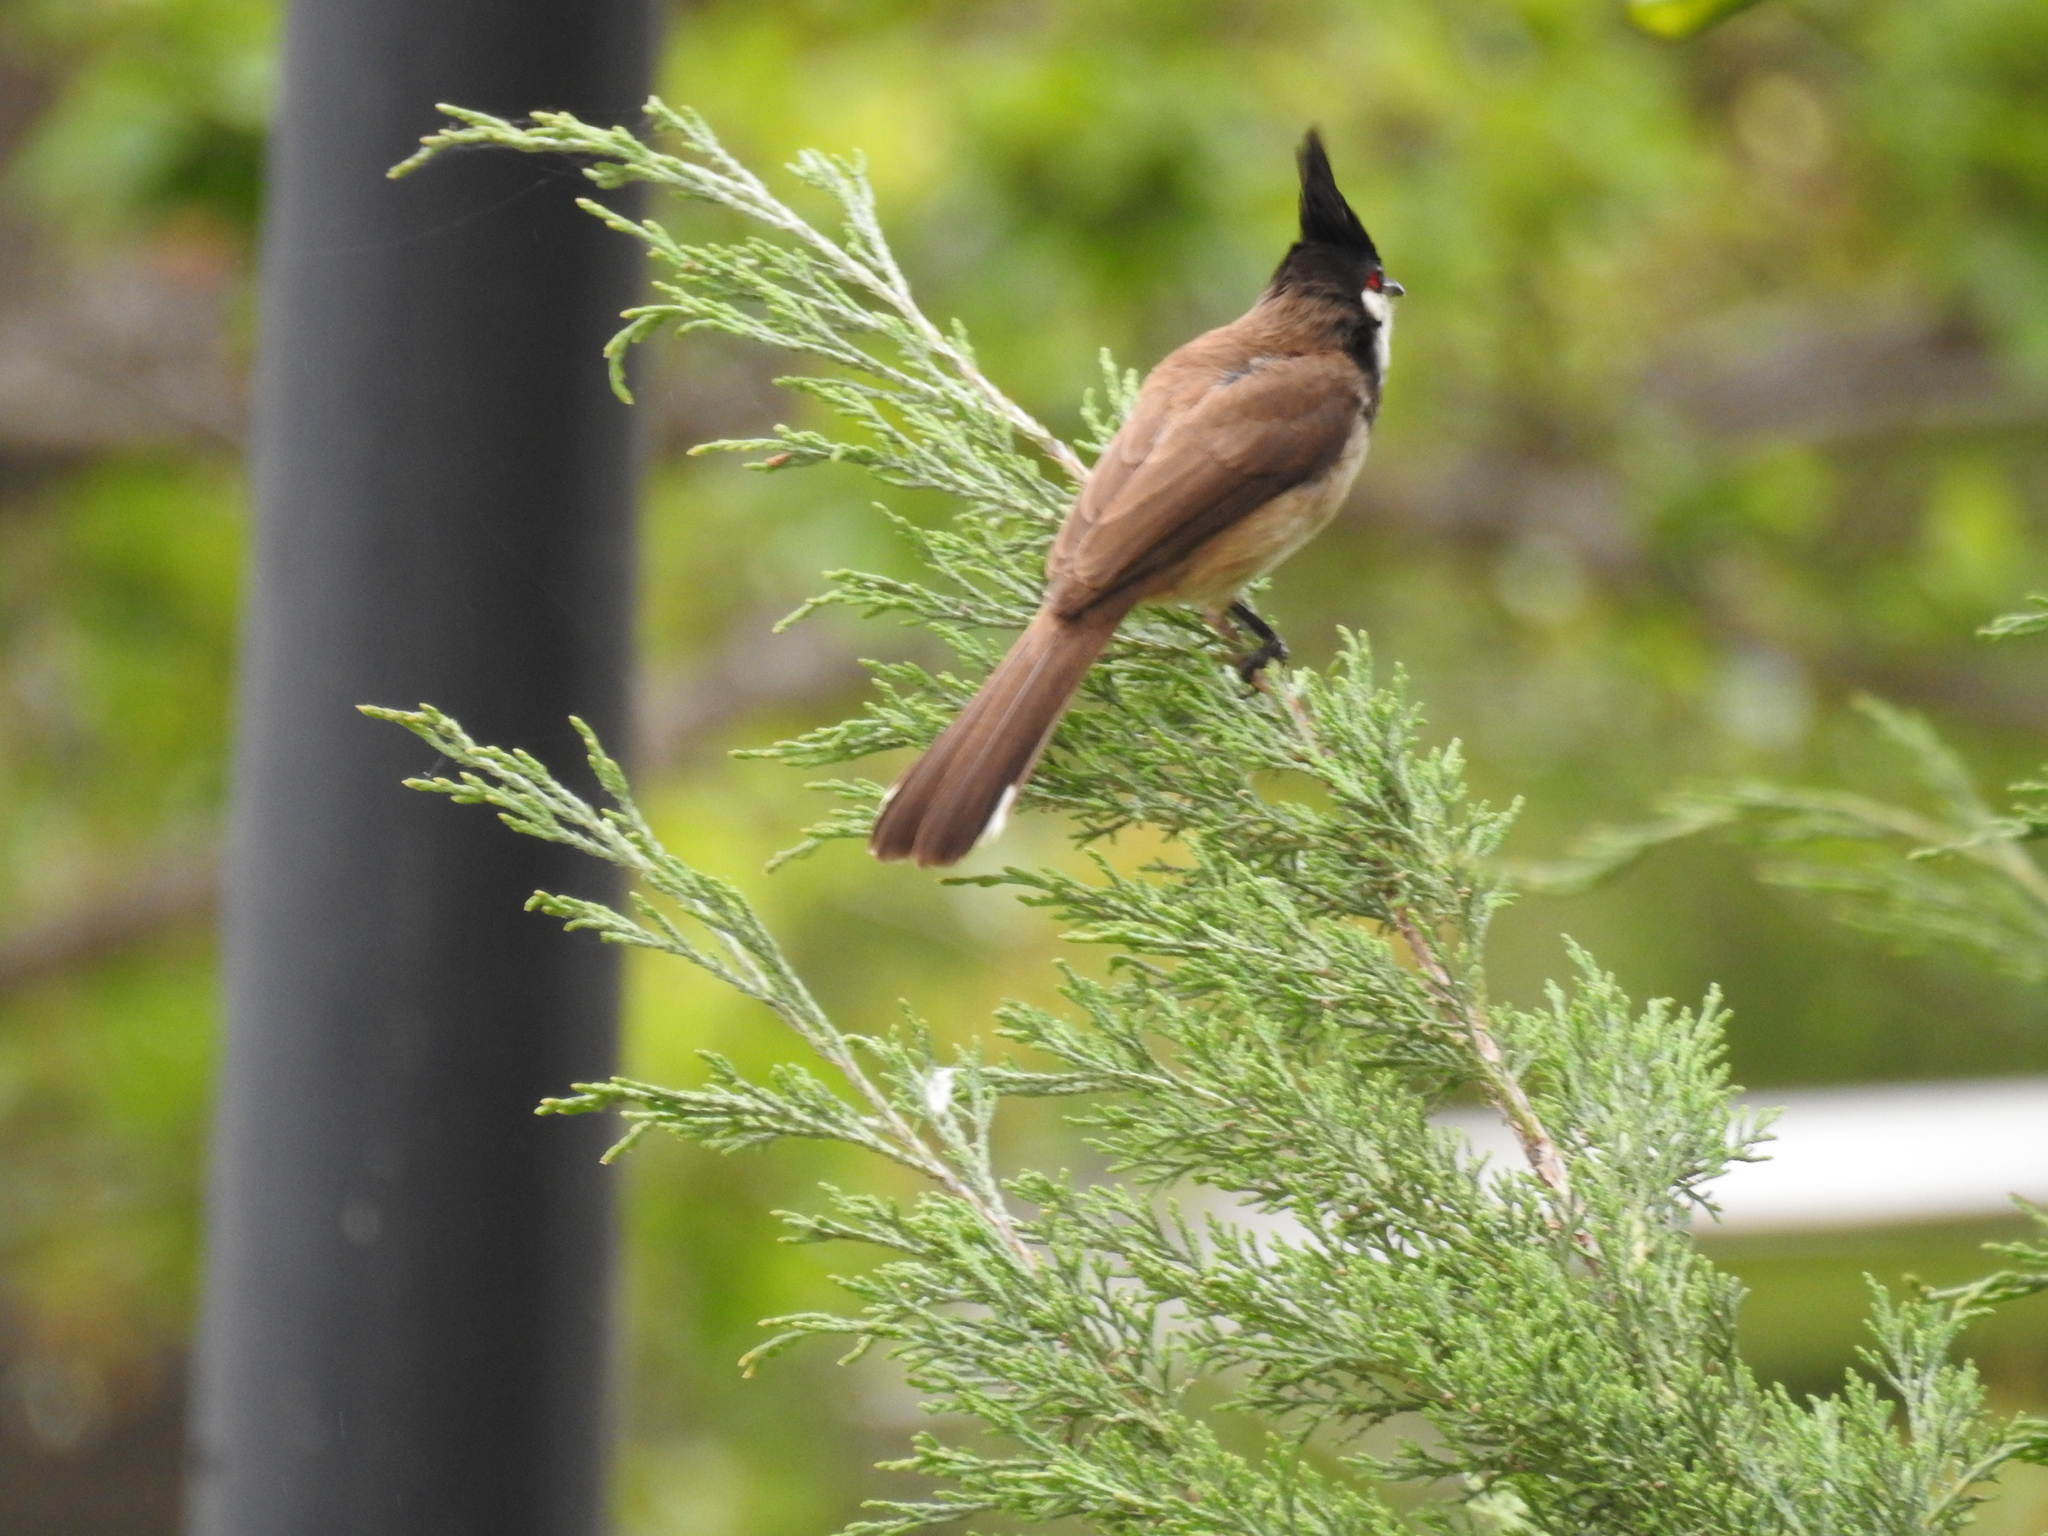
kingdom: Animalia
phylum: Chordata
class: Aves
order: Passeriformes
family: Pycnonotidae
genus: Pycnonotus
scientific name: Pycnonotus jocosus
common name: Red-whiskered bulbul
